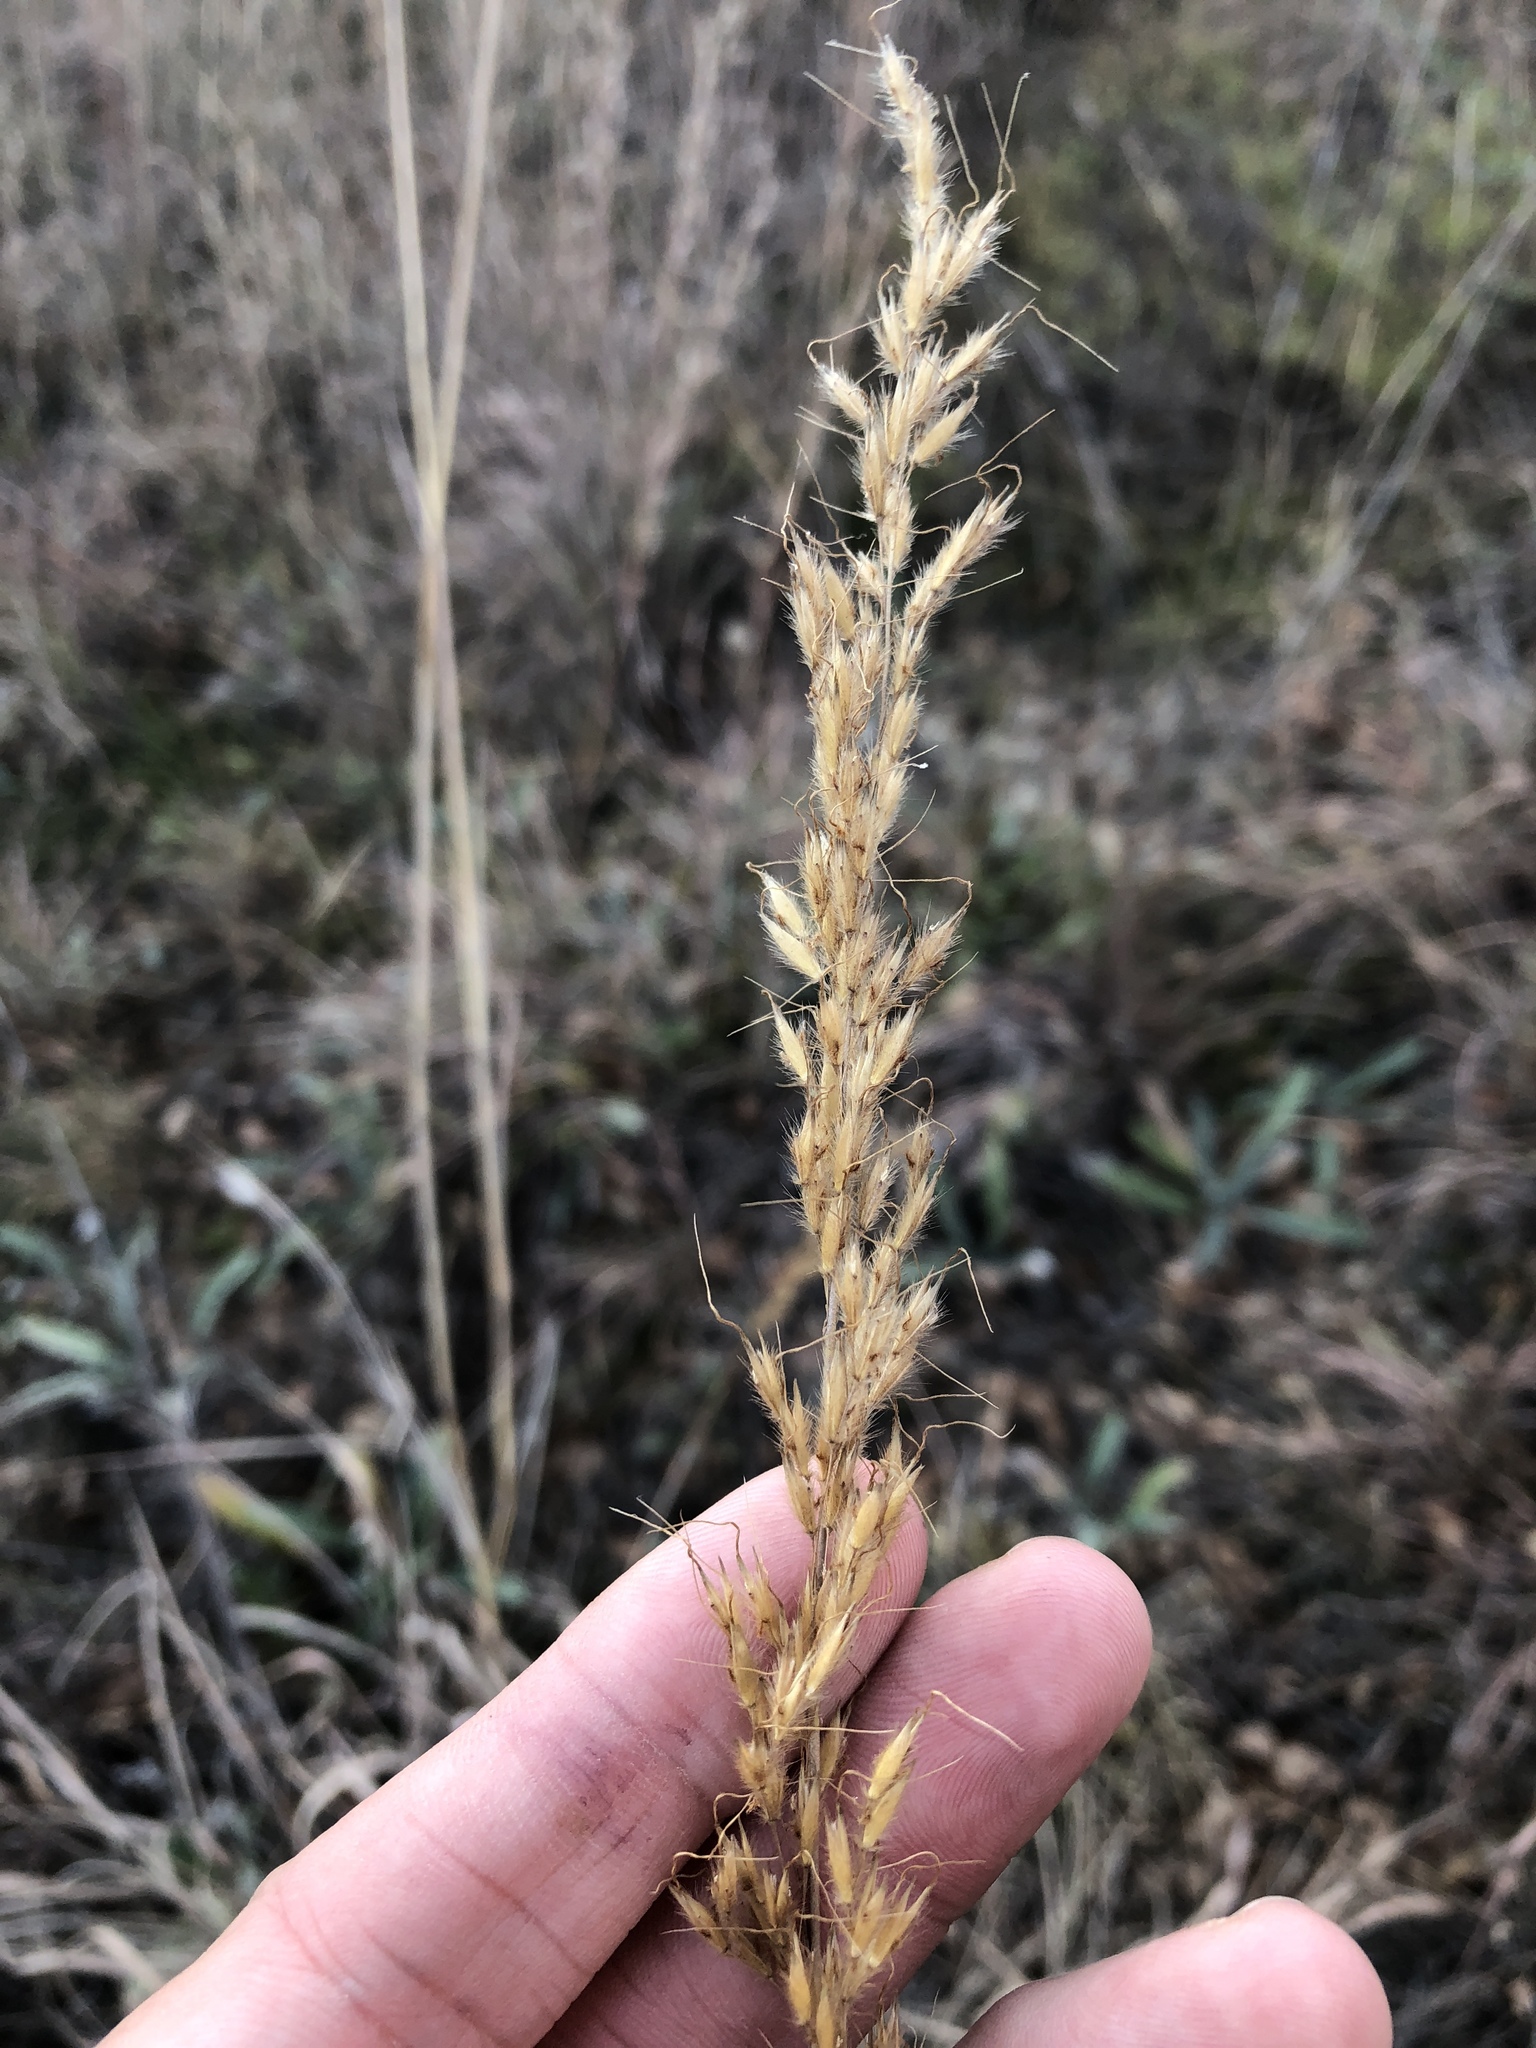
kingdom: Plantae
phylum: Tracheophyta
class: Liliopsida
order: Poales
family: Poaceae
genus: Sorghastrum
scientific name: Sorghastrum nutans
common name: Indian grass
